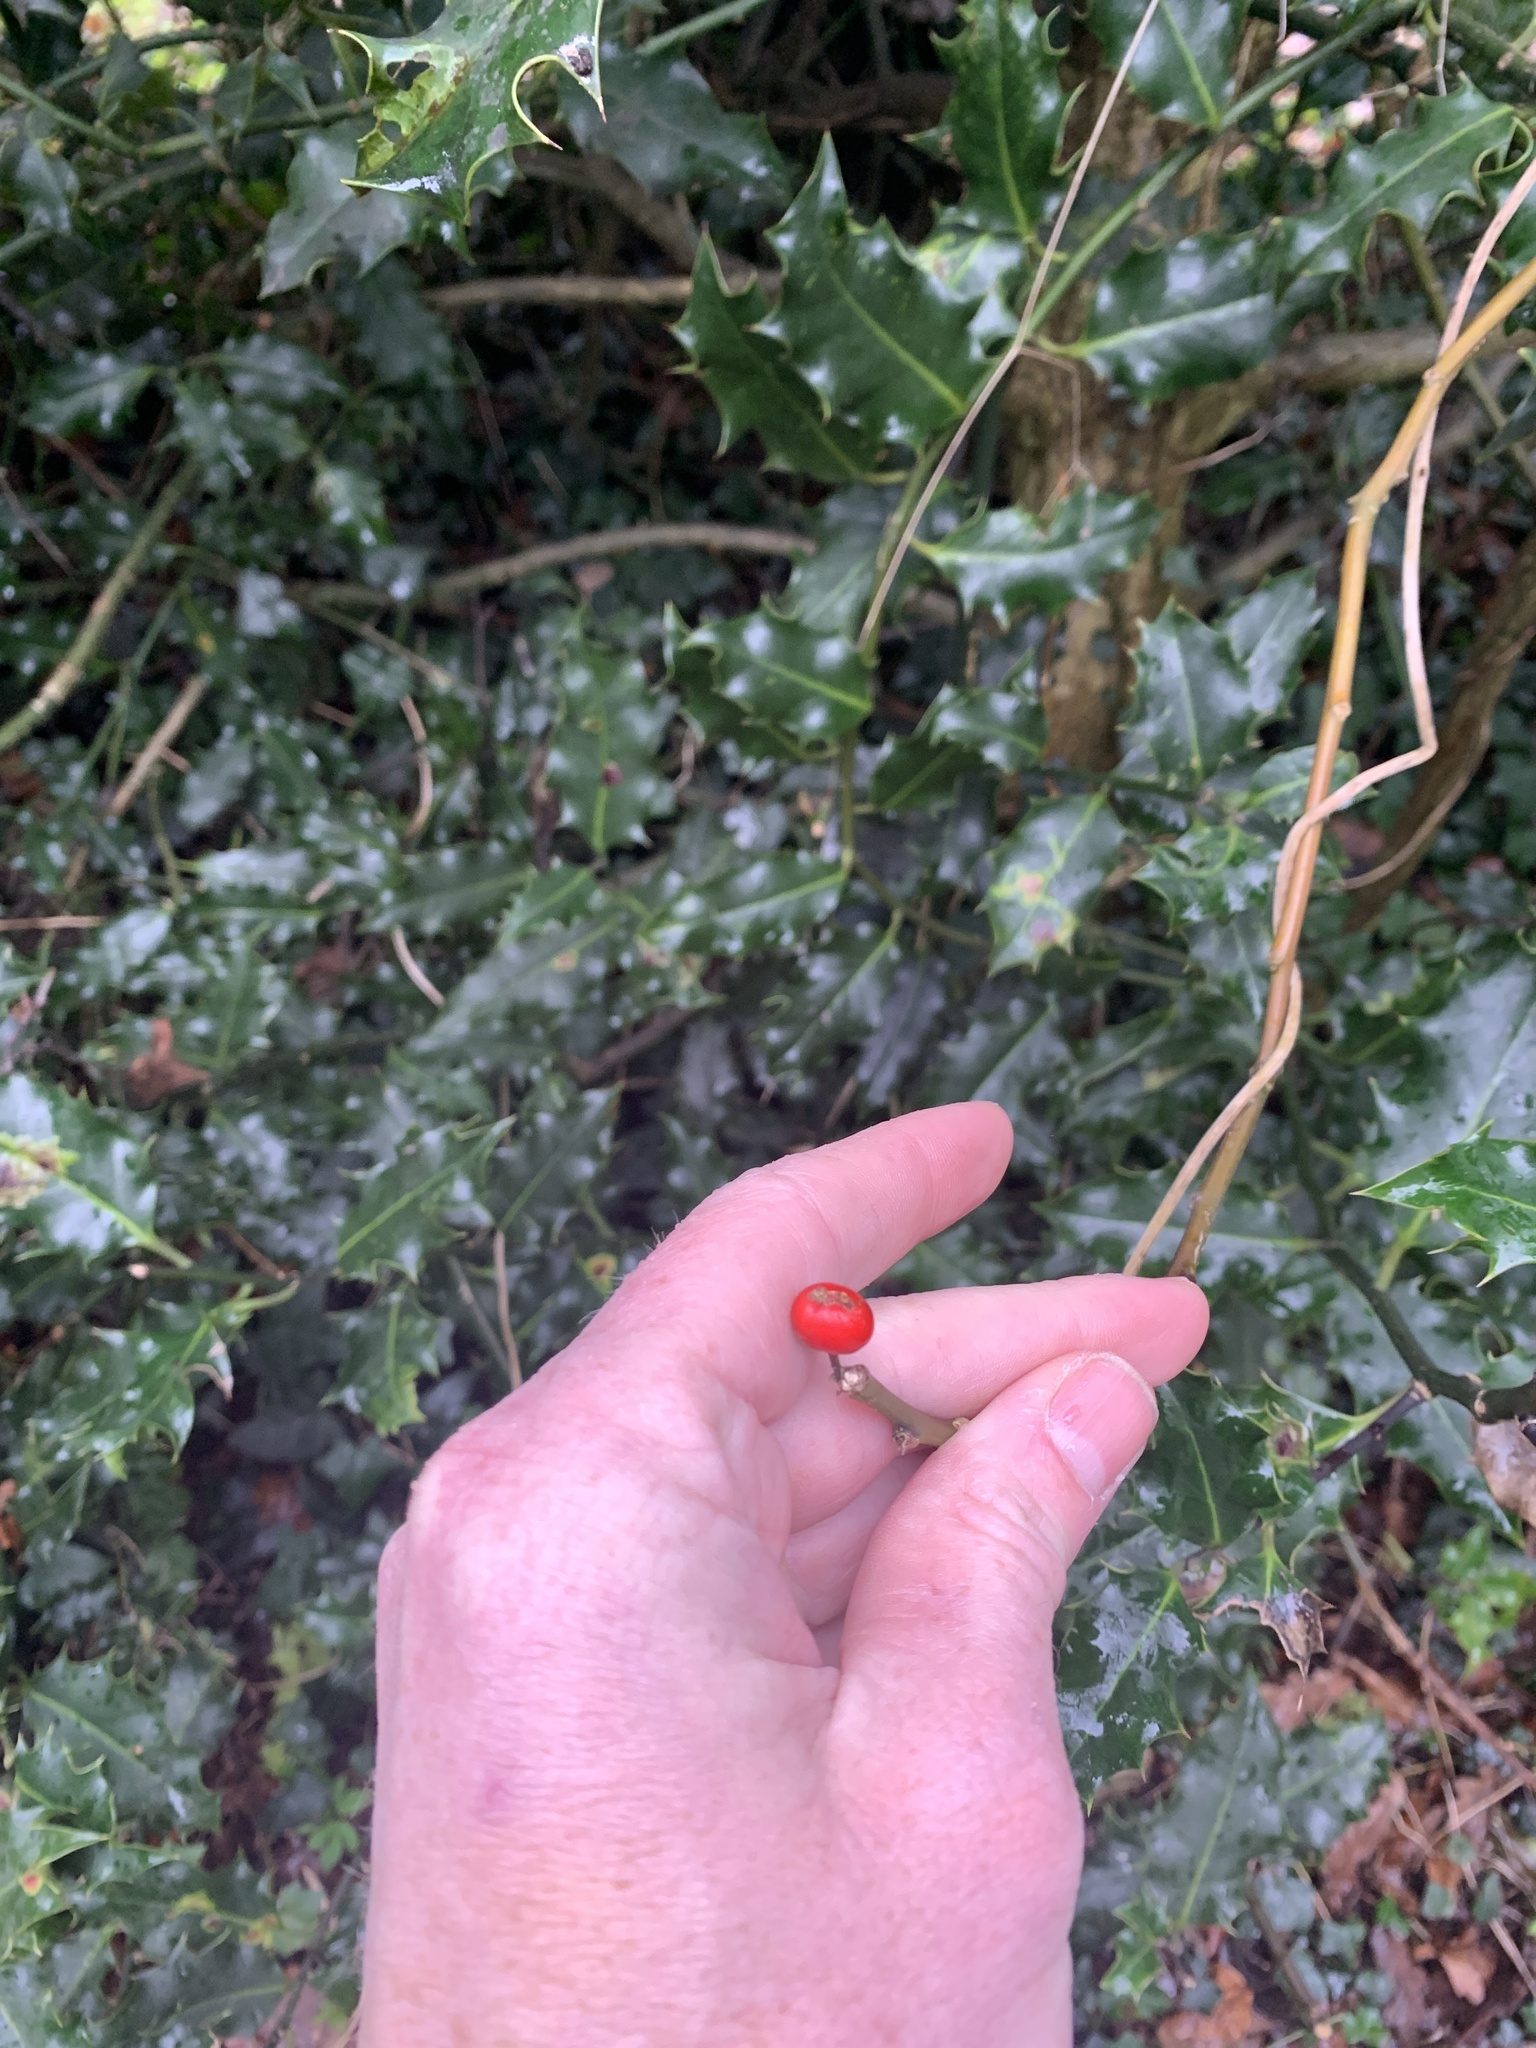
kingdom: Plantae
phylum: Tracheophyta
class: Magnoliopsida
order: Aquifoliales
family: Aquifoliaceae
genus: Ilex
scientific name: Ilex aquifolium
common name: English holly
